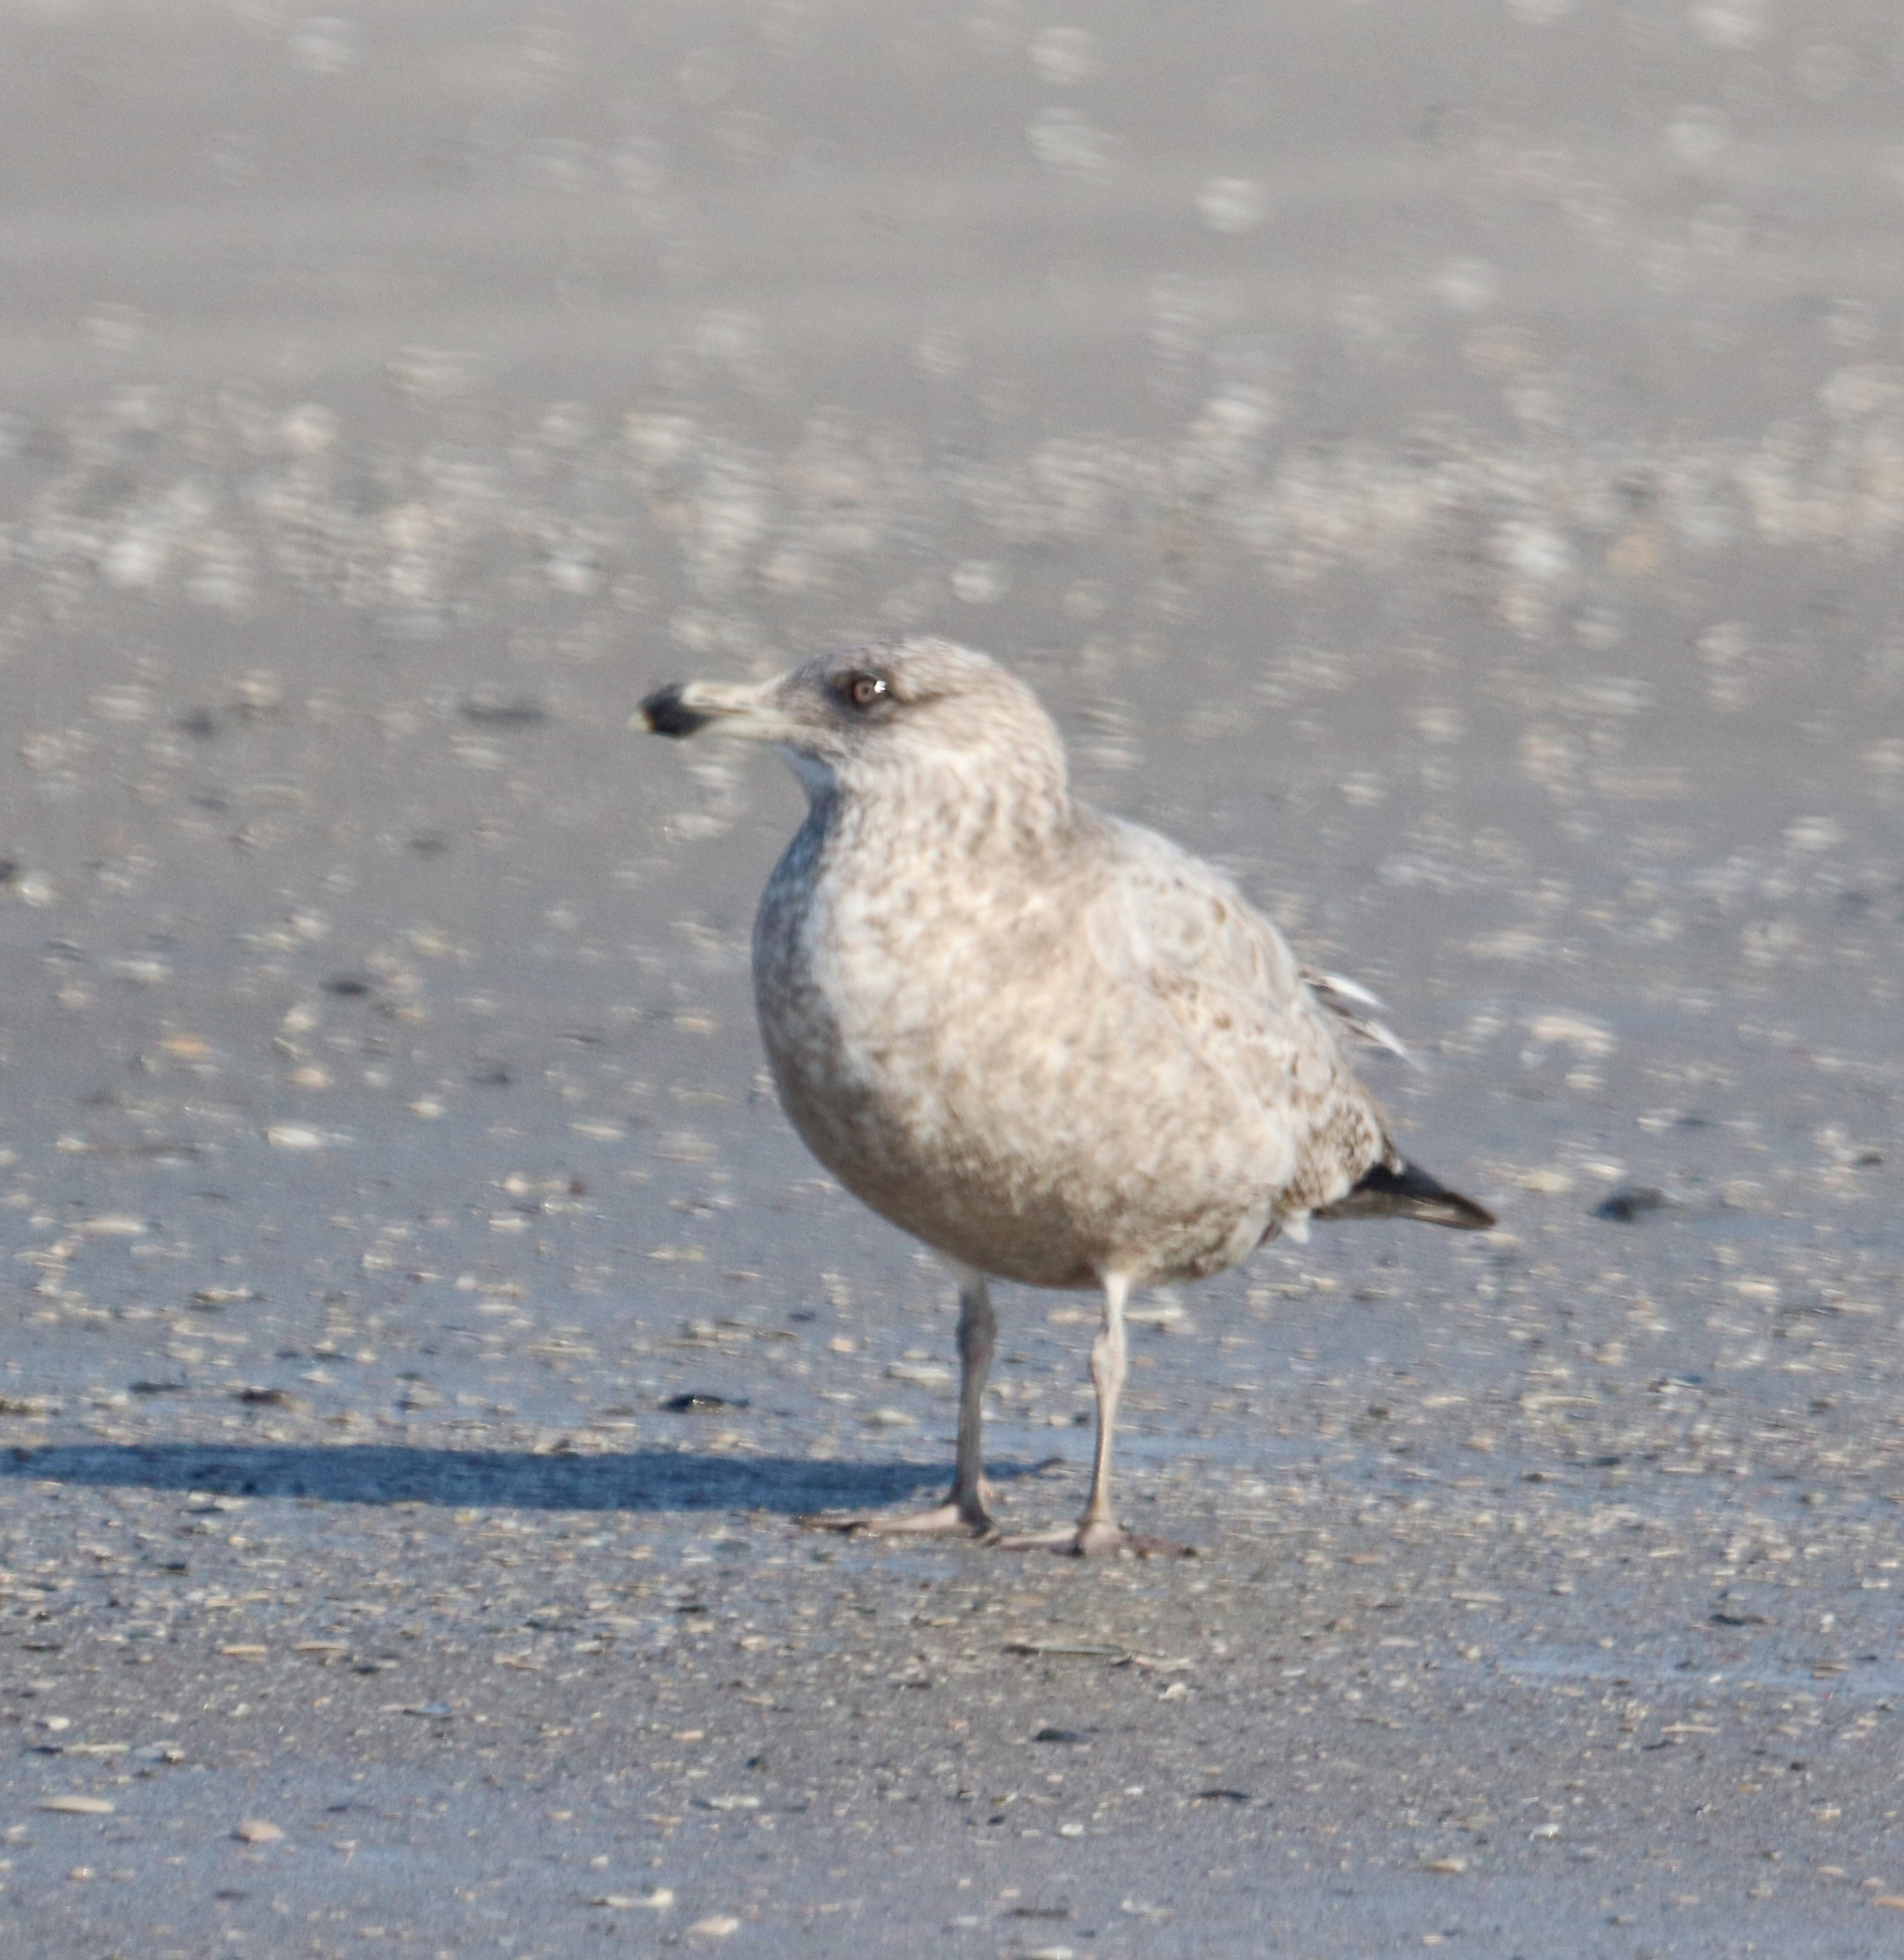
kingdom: Animalia
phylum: Chordata
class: Aves
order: Charadriiformes
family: Laridae
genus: Larus
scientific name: Larus argentatus
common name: Herring gull
